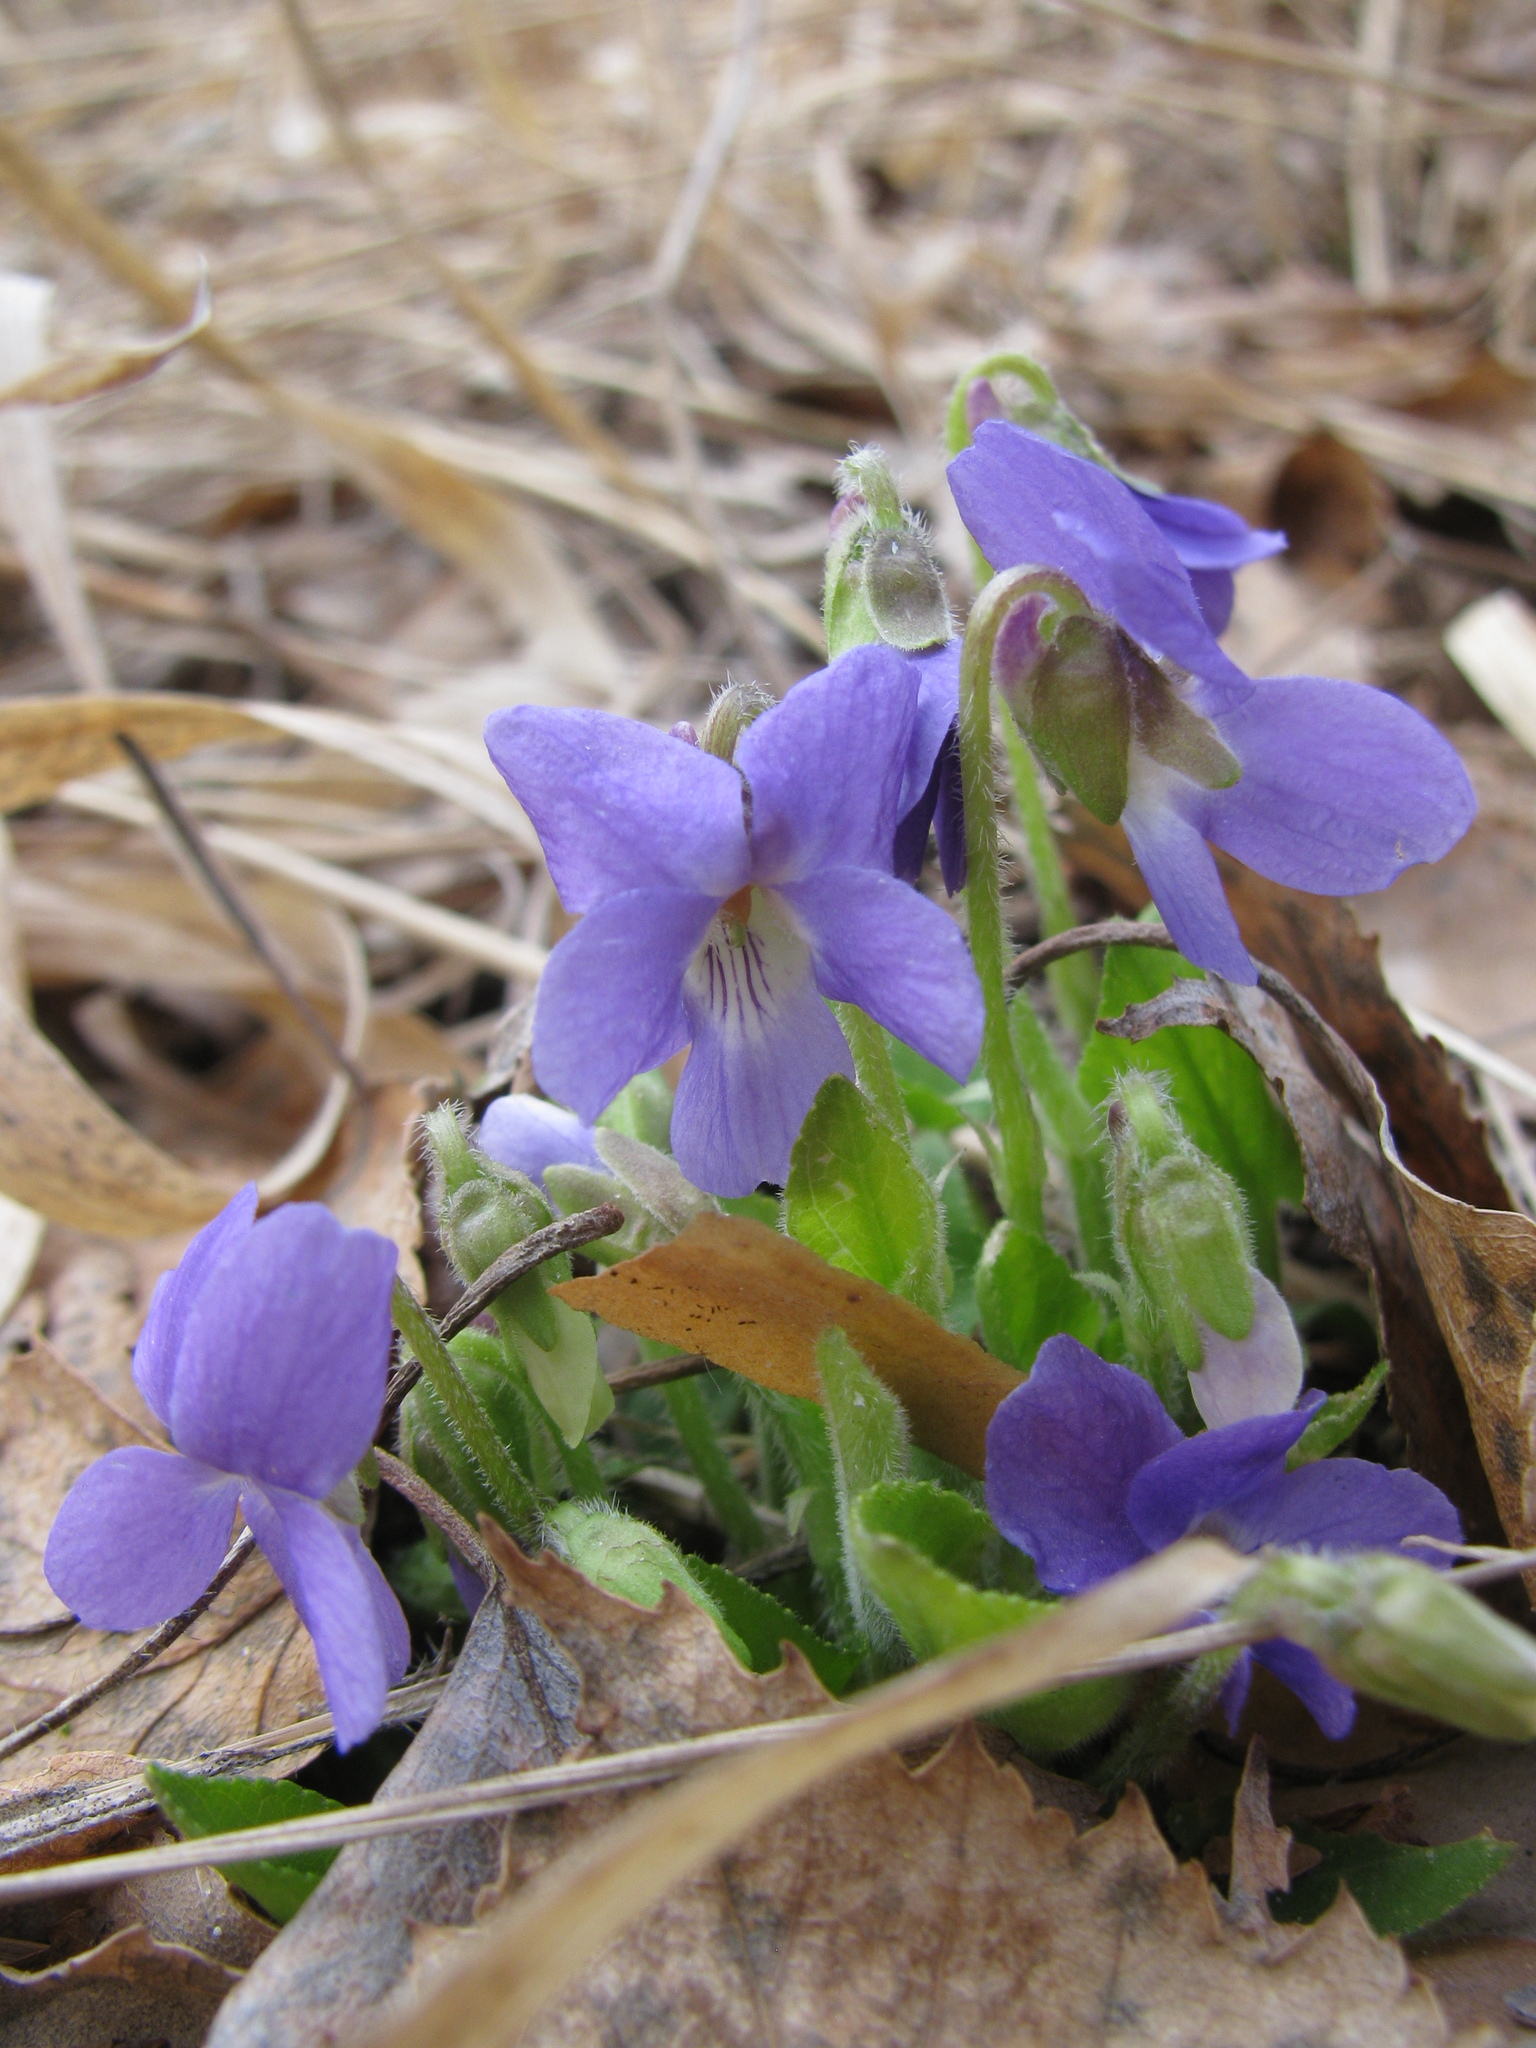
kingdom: Plantae
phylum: Tracheophyta
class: Magnoliopsida
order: Malpighiales
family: Violaceae
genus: Viola
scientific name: Viola hirta
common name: Hairy violet
